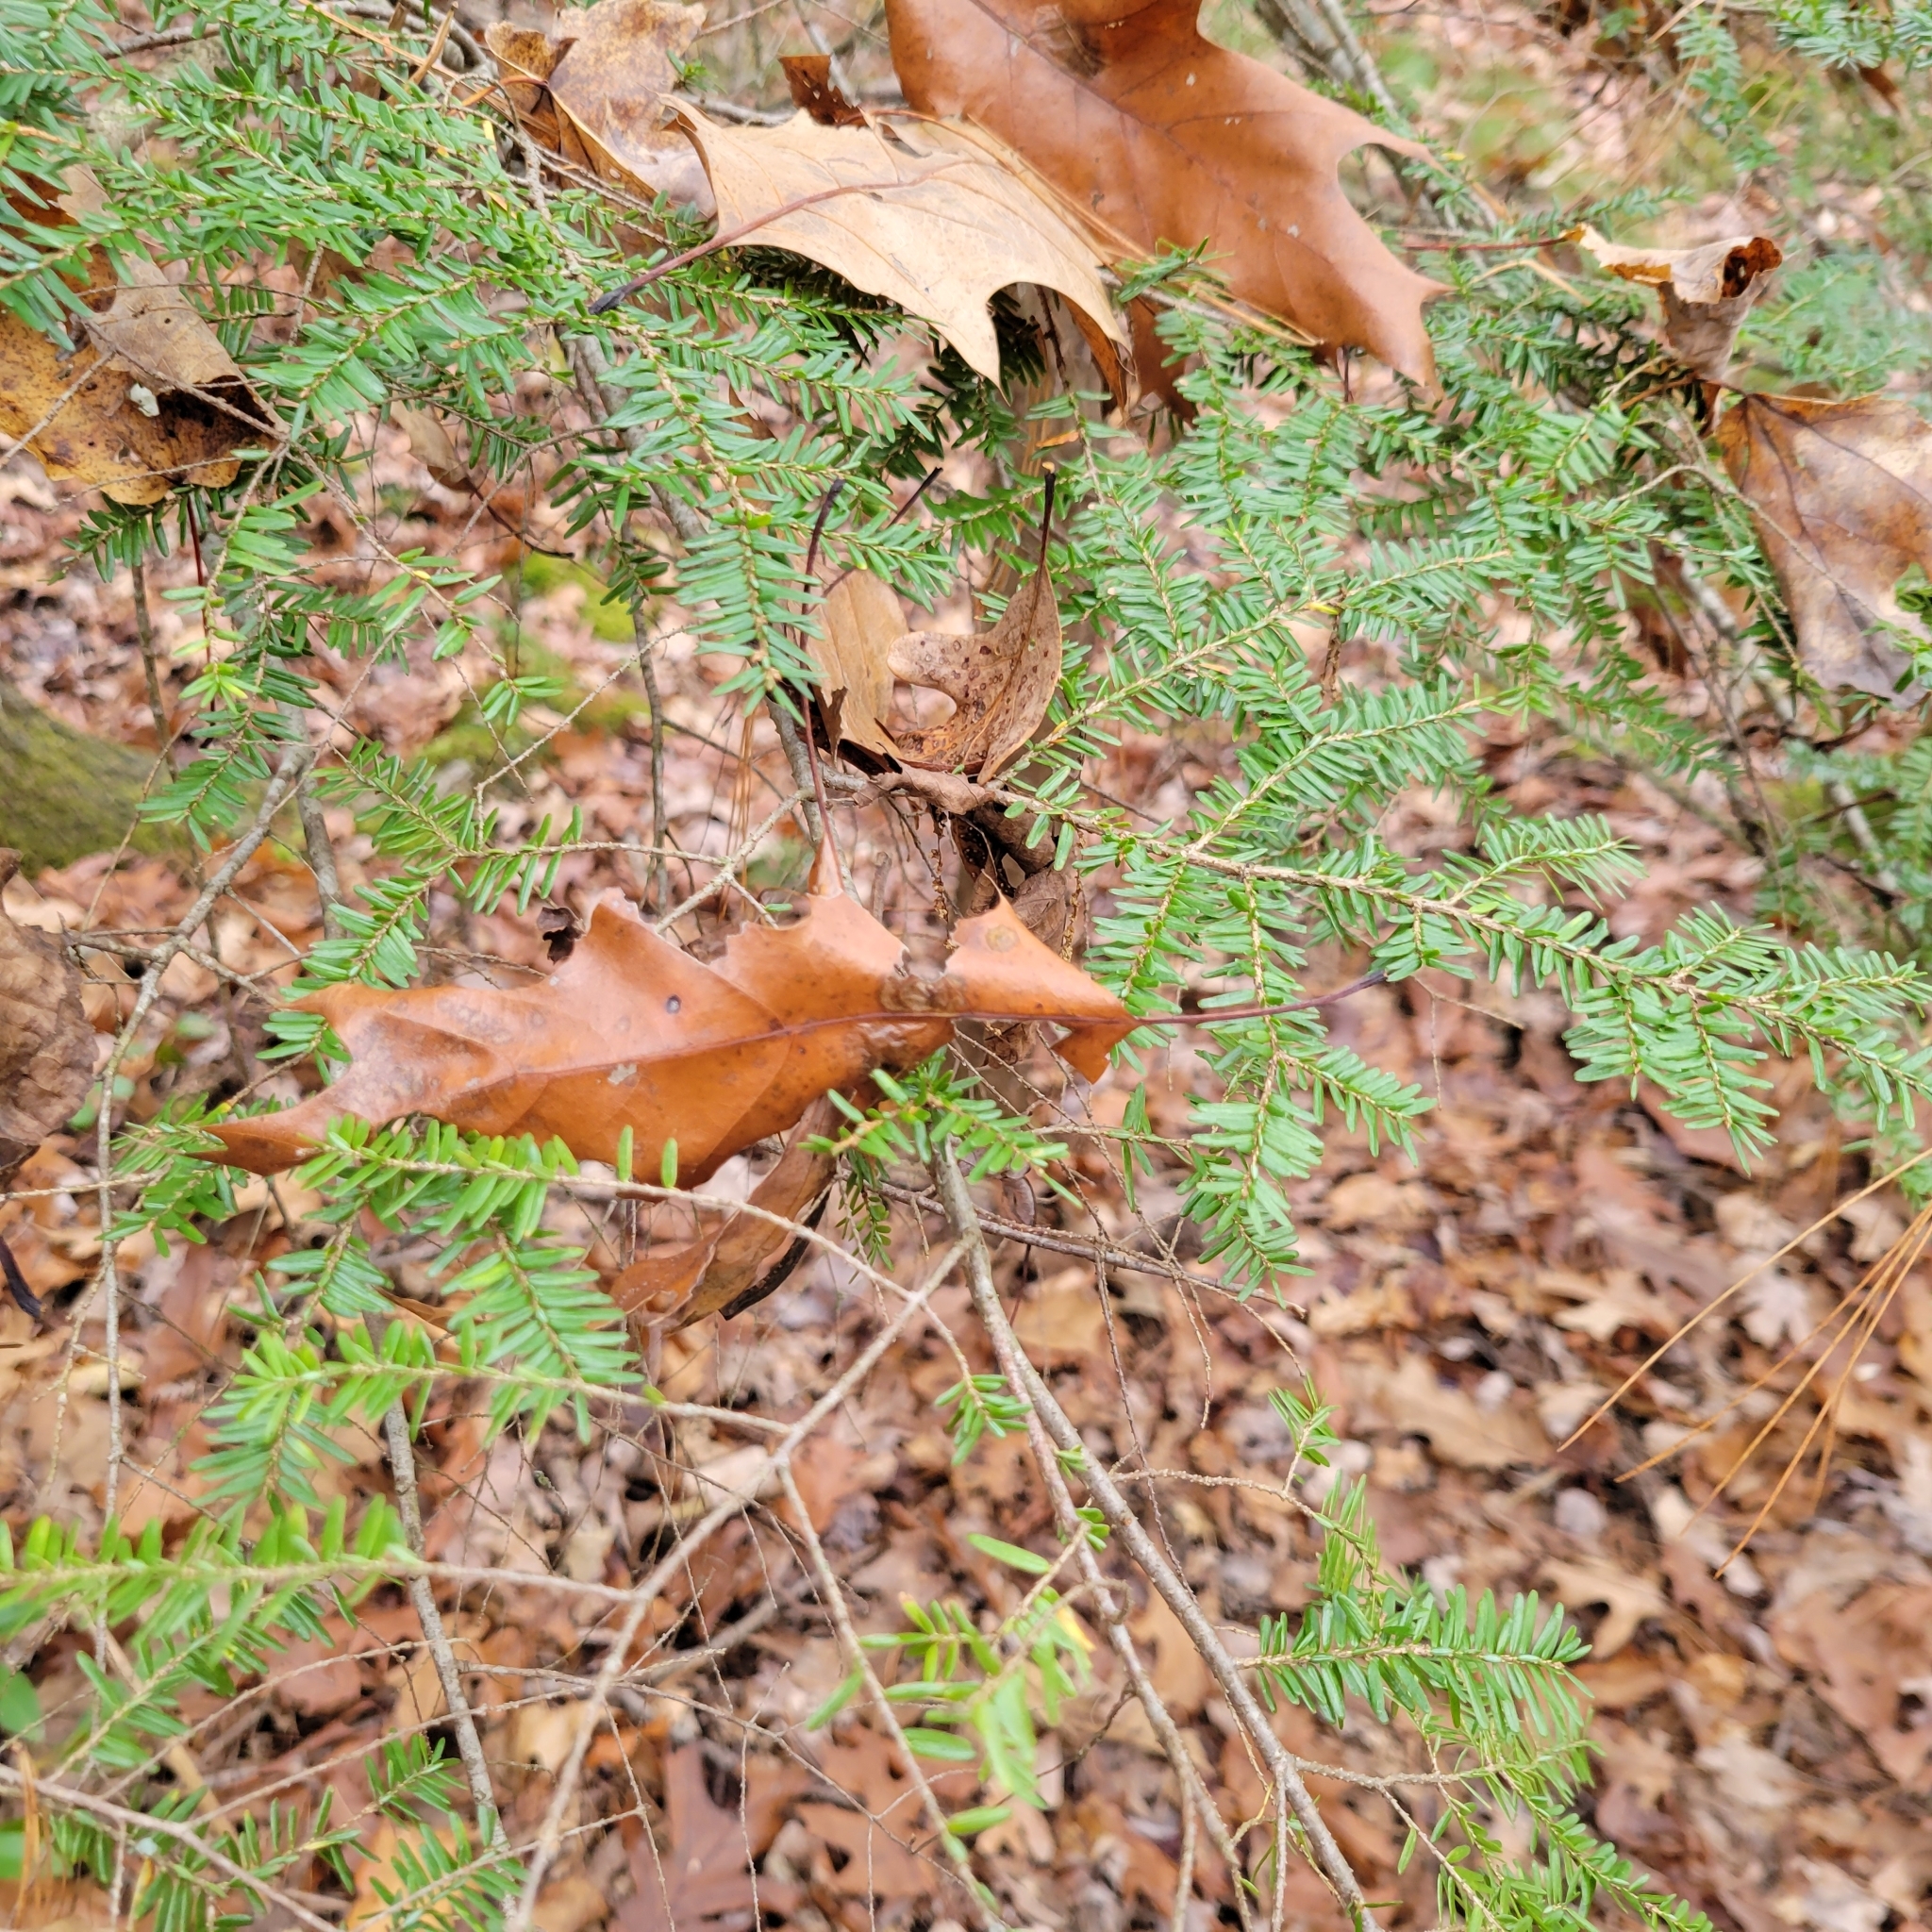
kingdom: Plantae
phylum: Tracheophyta
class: Pinopsida
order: Pinales
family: Pinaceae
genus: Tsuga
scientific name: Tsuga canadensis
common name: Eastern hemlock
